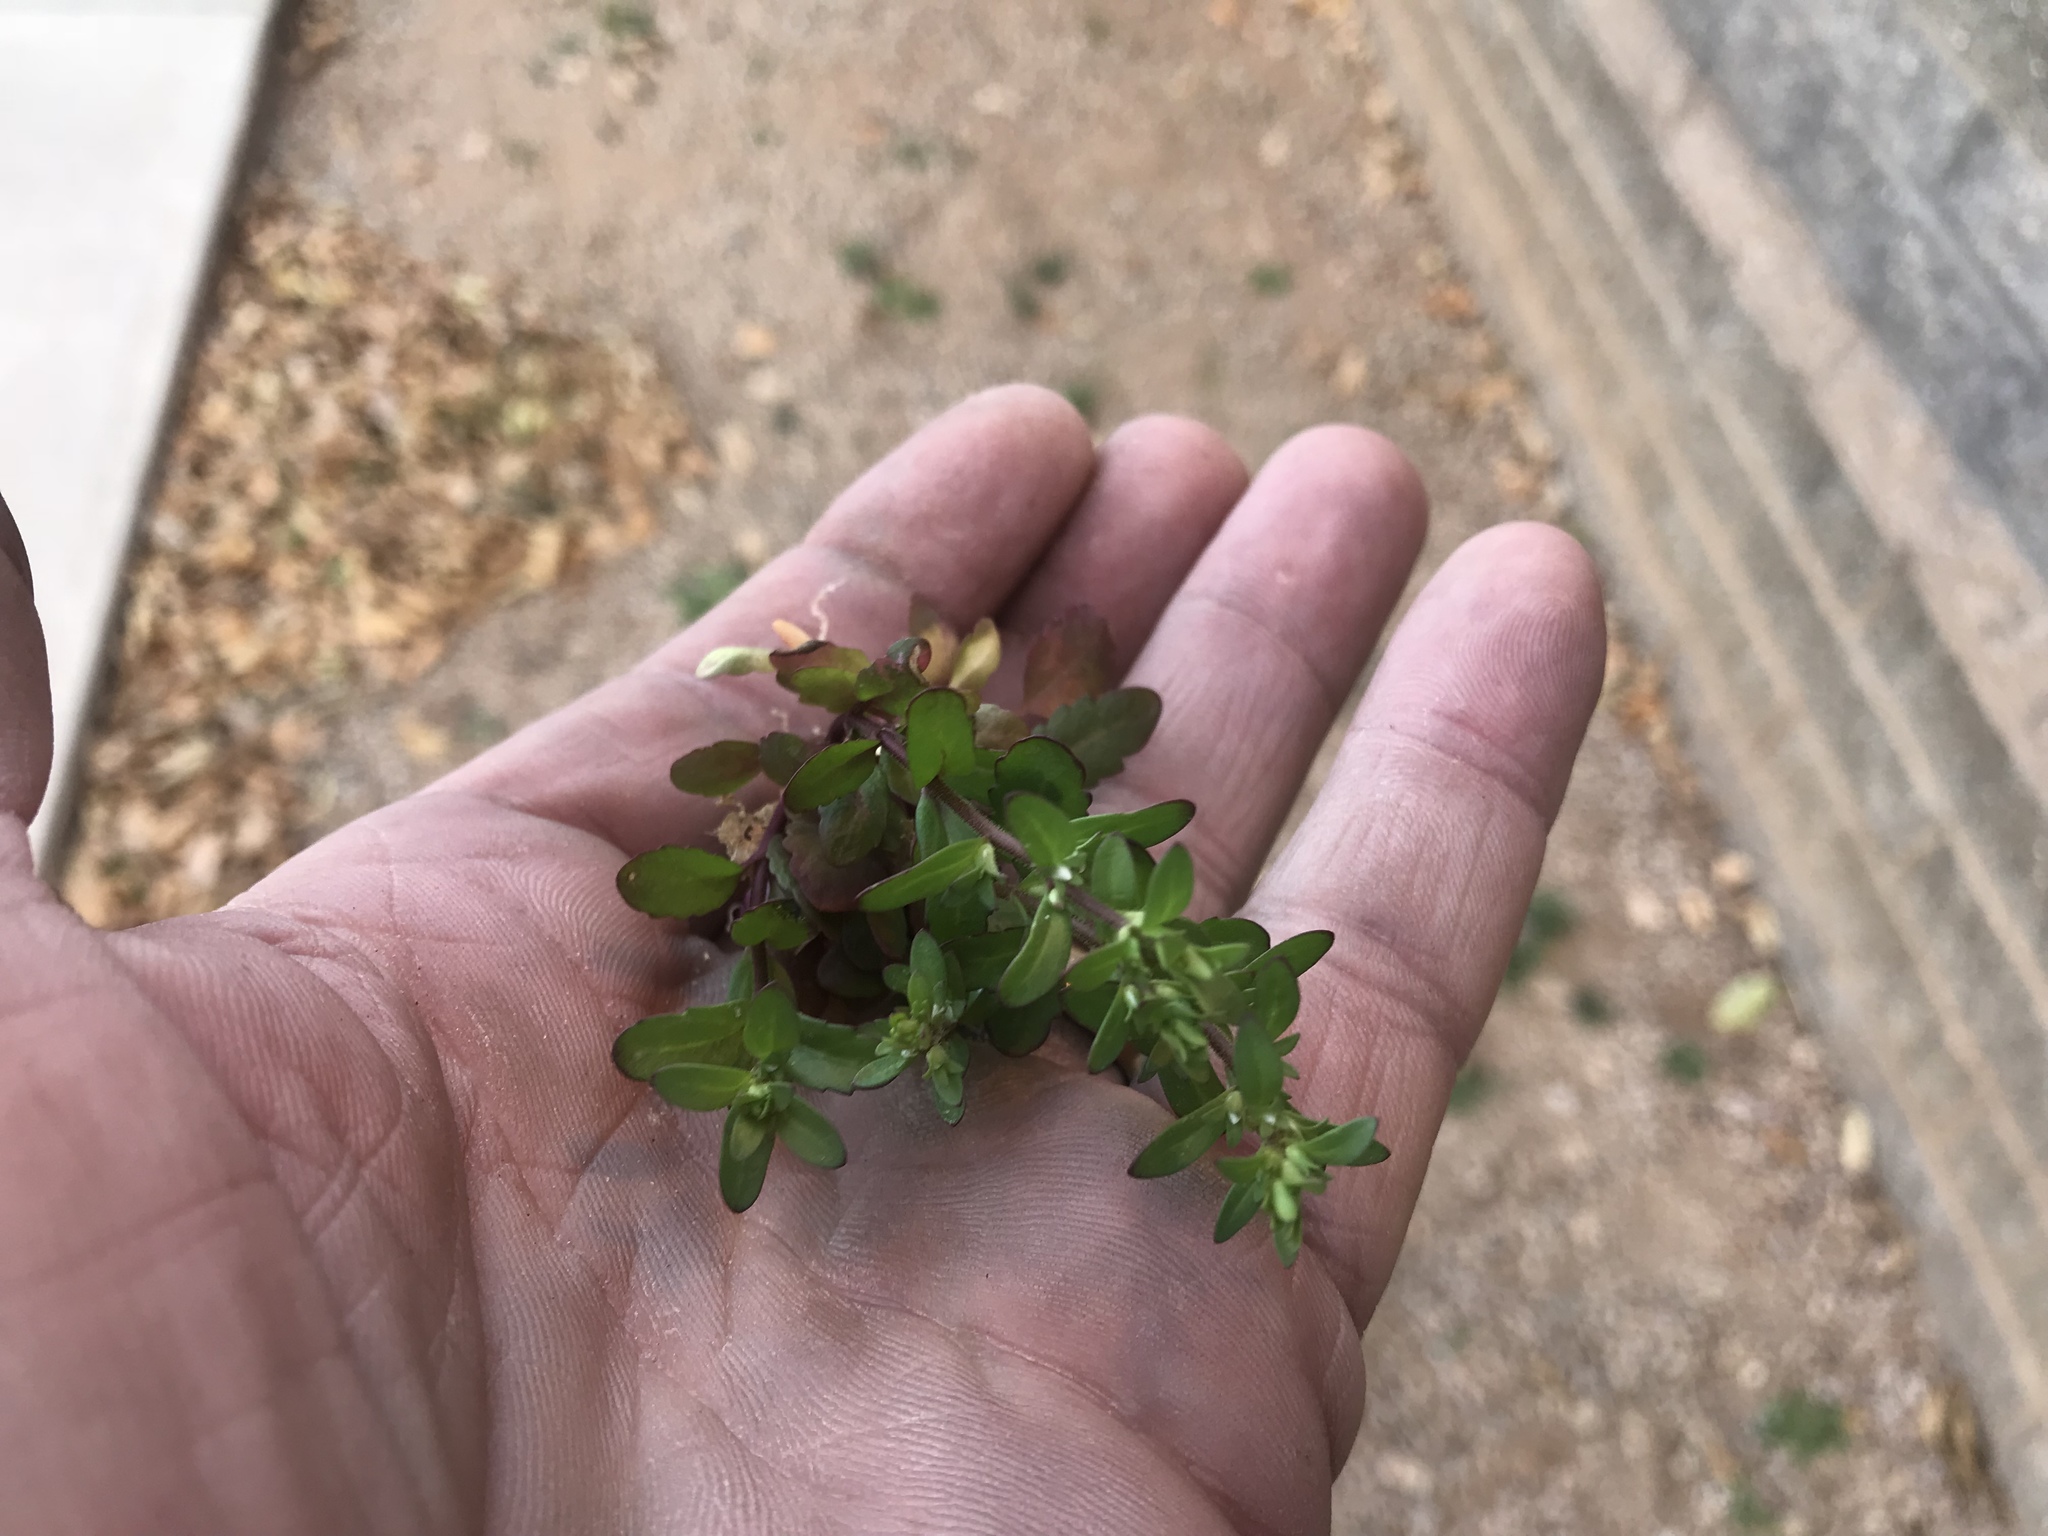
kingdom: Plantae
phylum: Tracheophyta
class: Magnoliopsida
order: Lamiales
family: Plantaginaceae
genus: Veronica
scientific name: Veronica peregrina
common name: Neckweed
